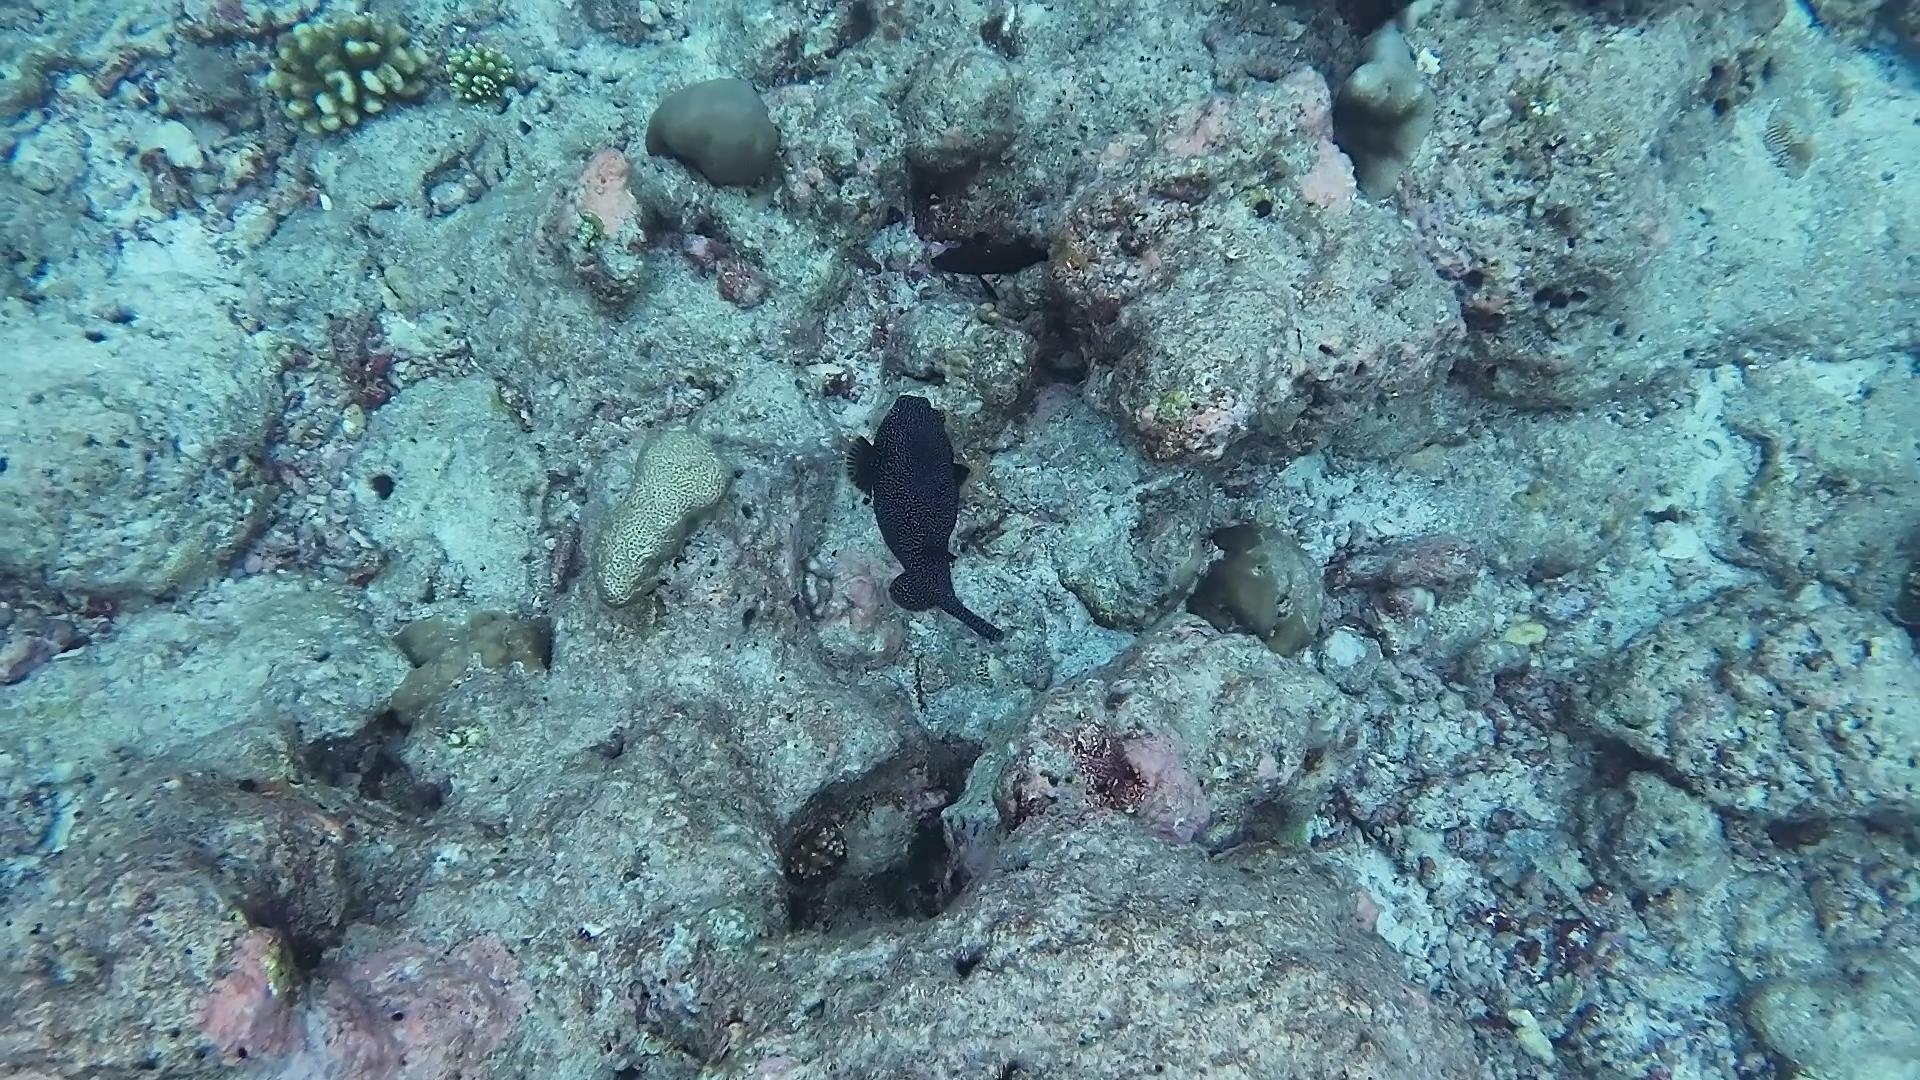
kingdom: Animalia
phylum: Chordata
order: Tetraodontiformes
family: Tetraodontidae
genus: Arothron
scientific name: Arothron meleagris
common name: Guinea-fowl pufferfish
